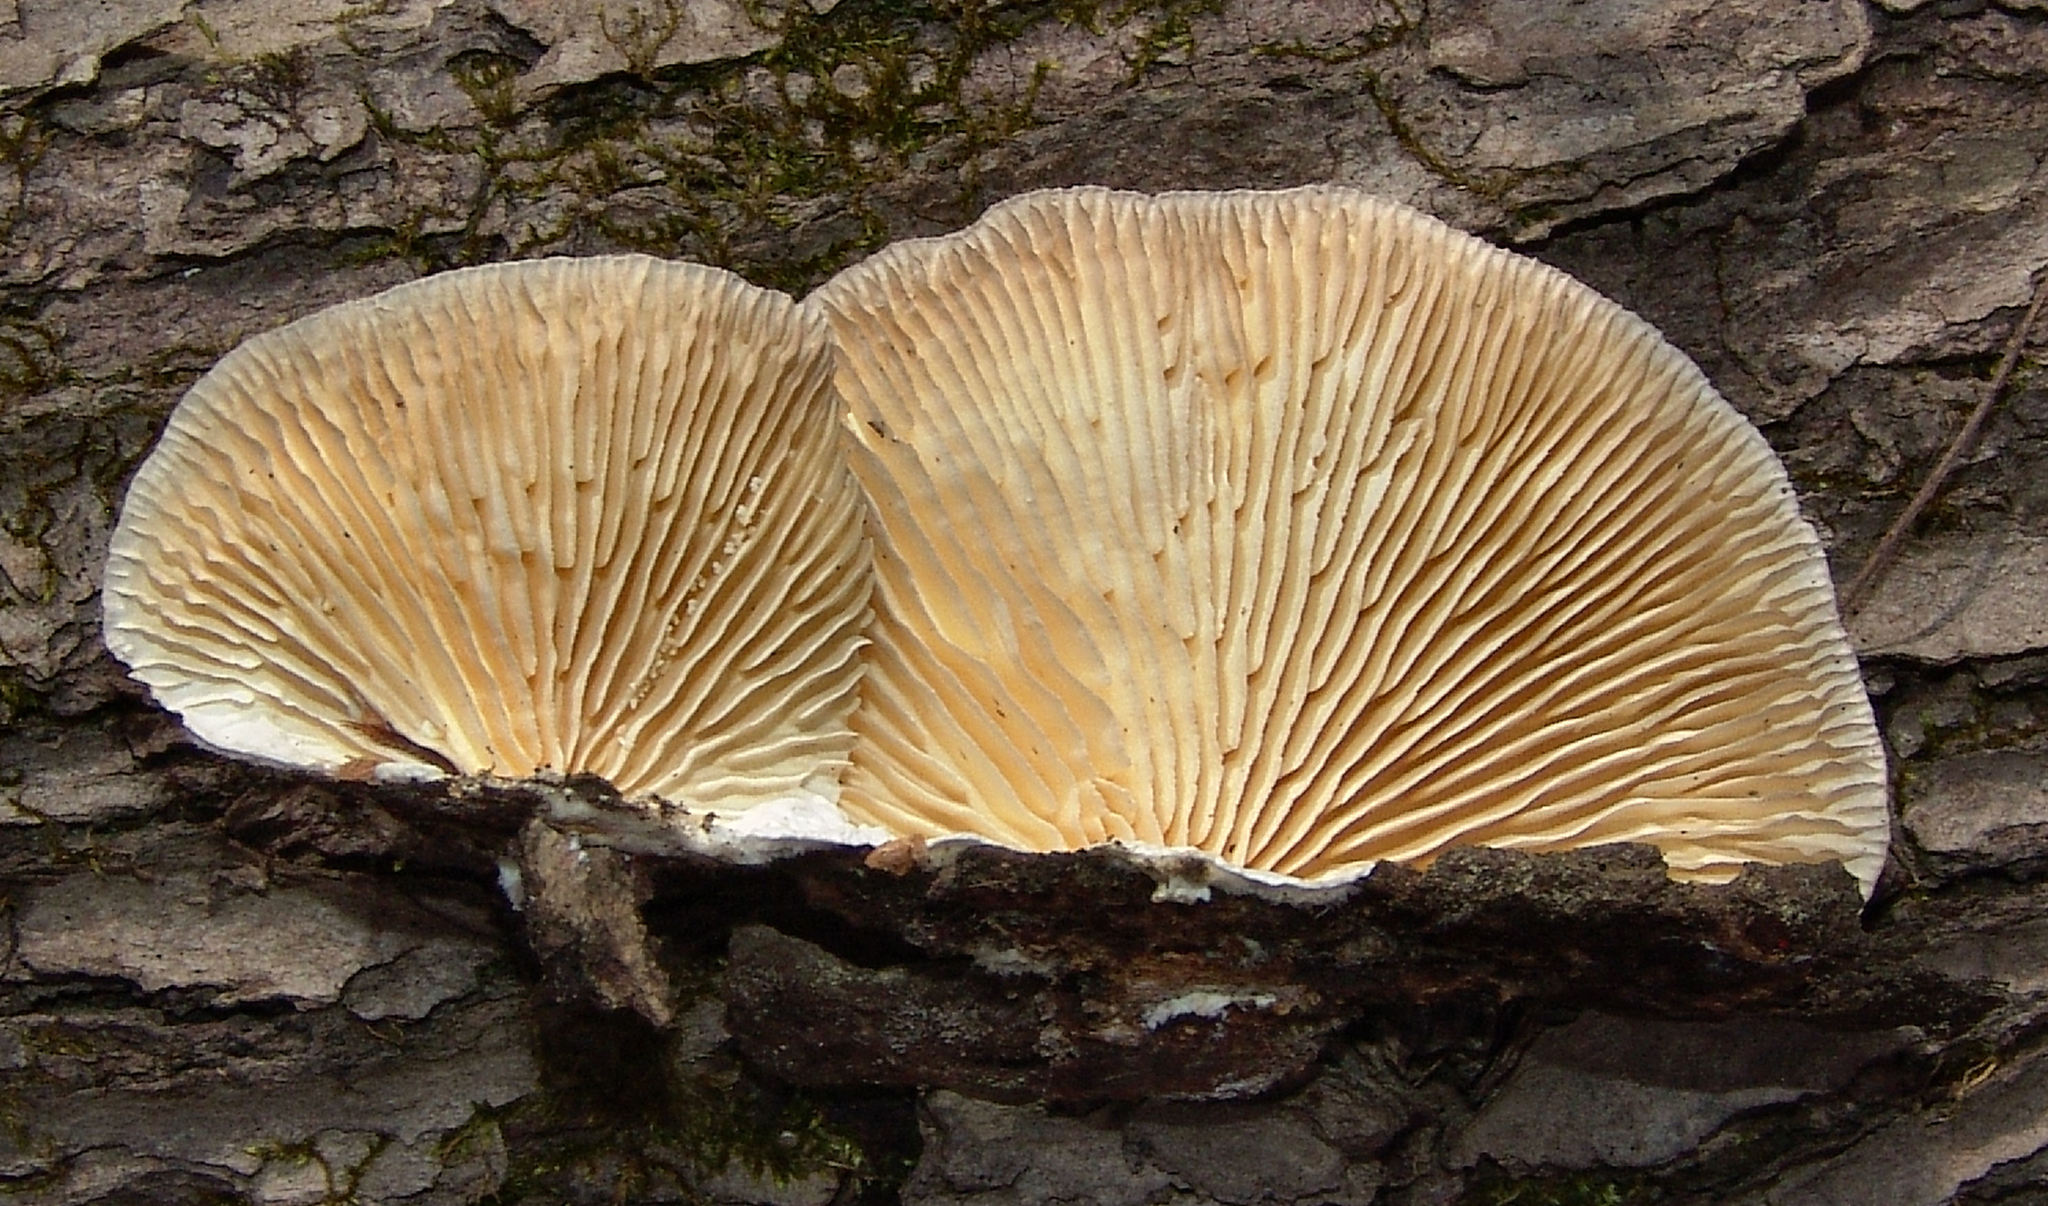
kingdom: Fungi
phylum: Basidiomycota
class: Agaricomycetes
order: Polyporales
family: Polyporaceae
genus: Lenzites
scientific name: Lenzites betulinus
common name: Birch mazegill
